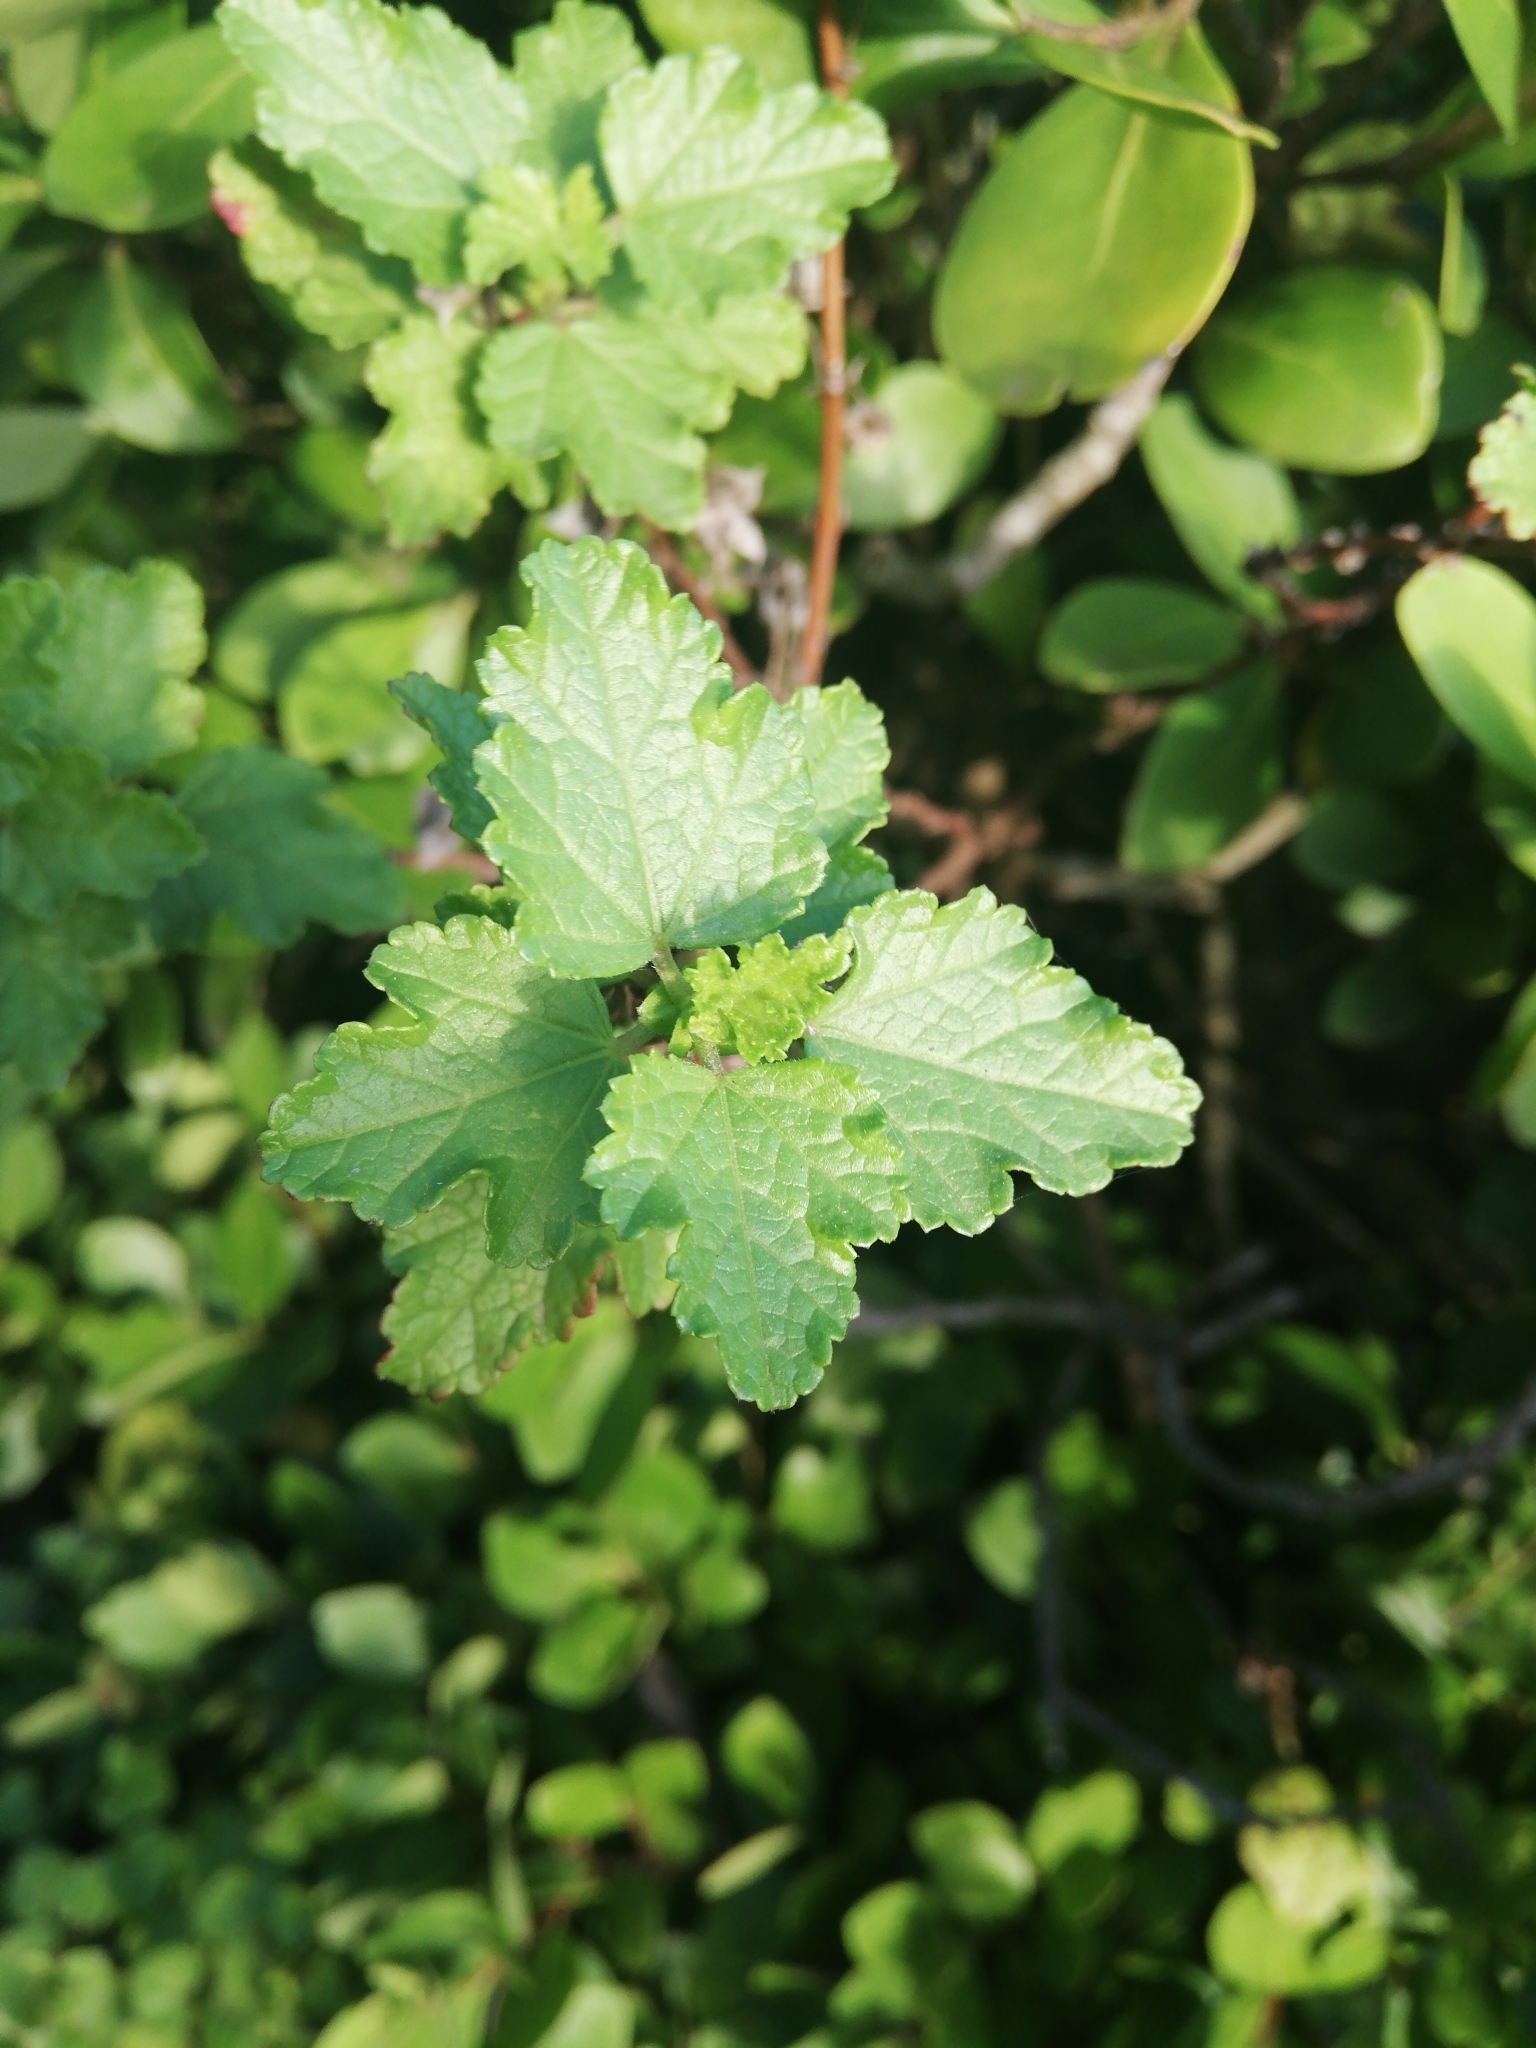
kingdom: Plantae
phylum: Tracheophyta
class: Magnoliopsida
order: Malvales
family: Malvaceae
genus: Anisodontea
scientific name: Anisodontea scabrosa
